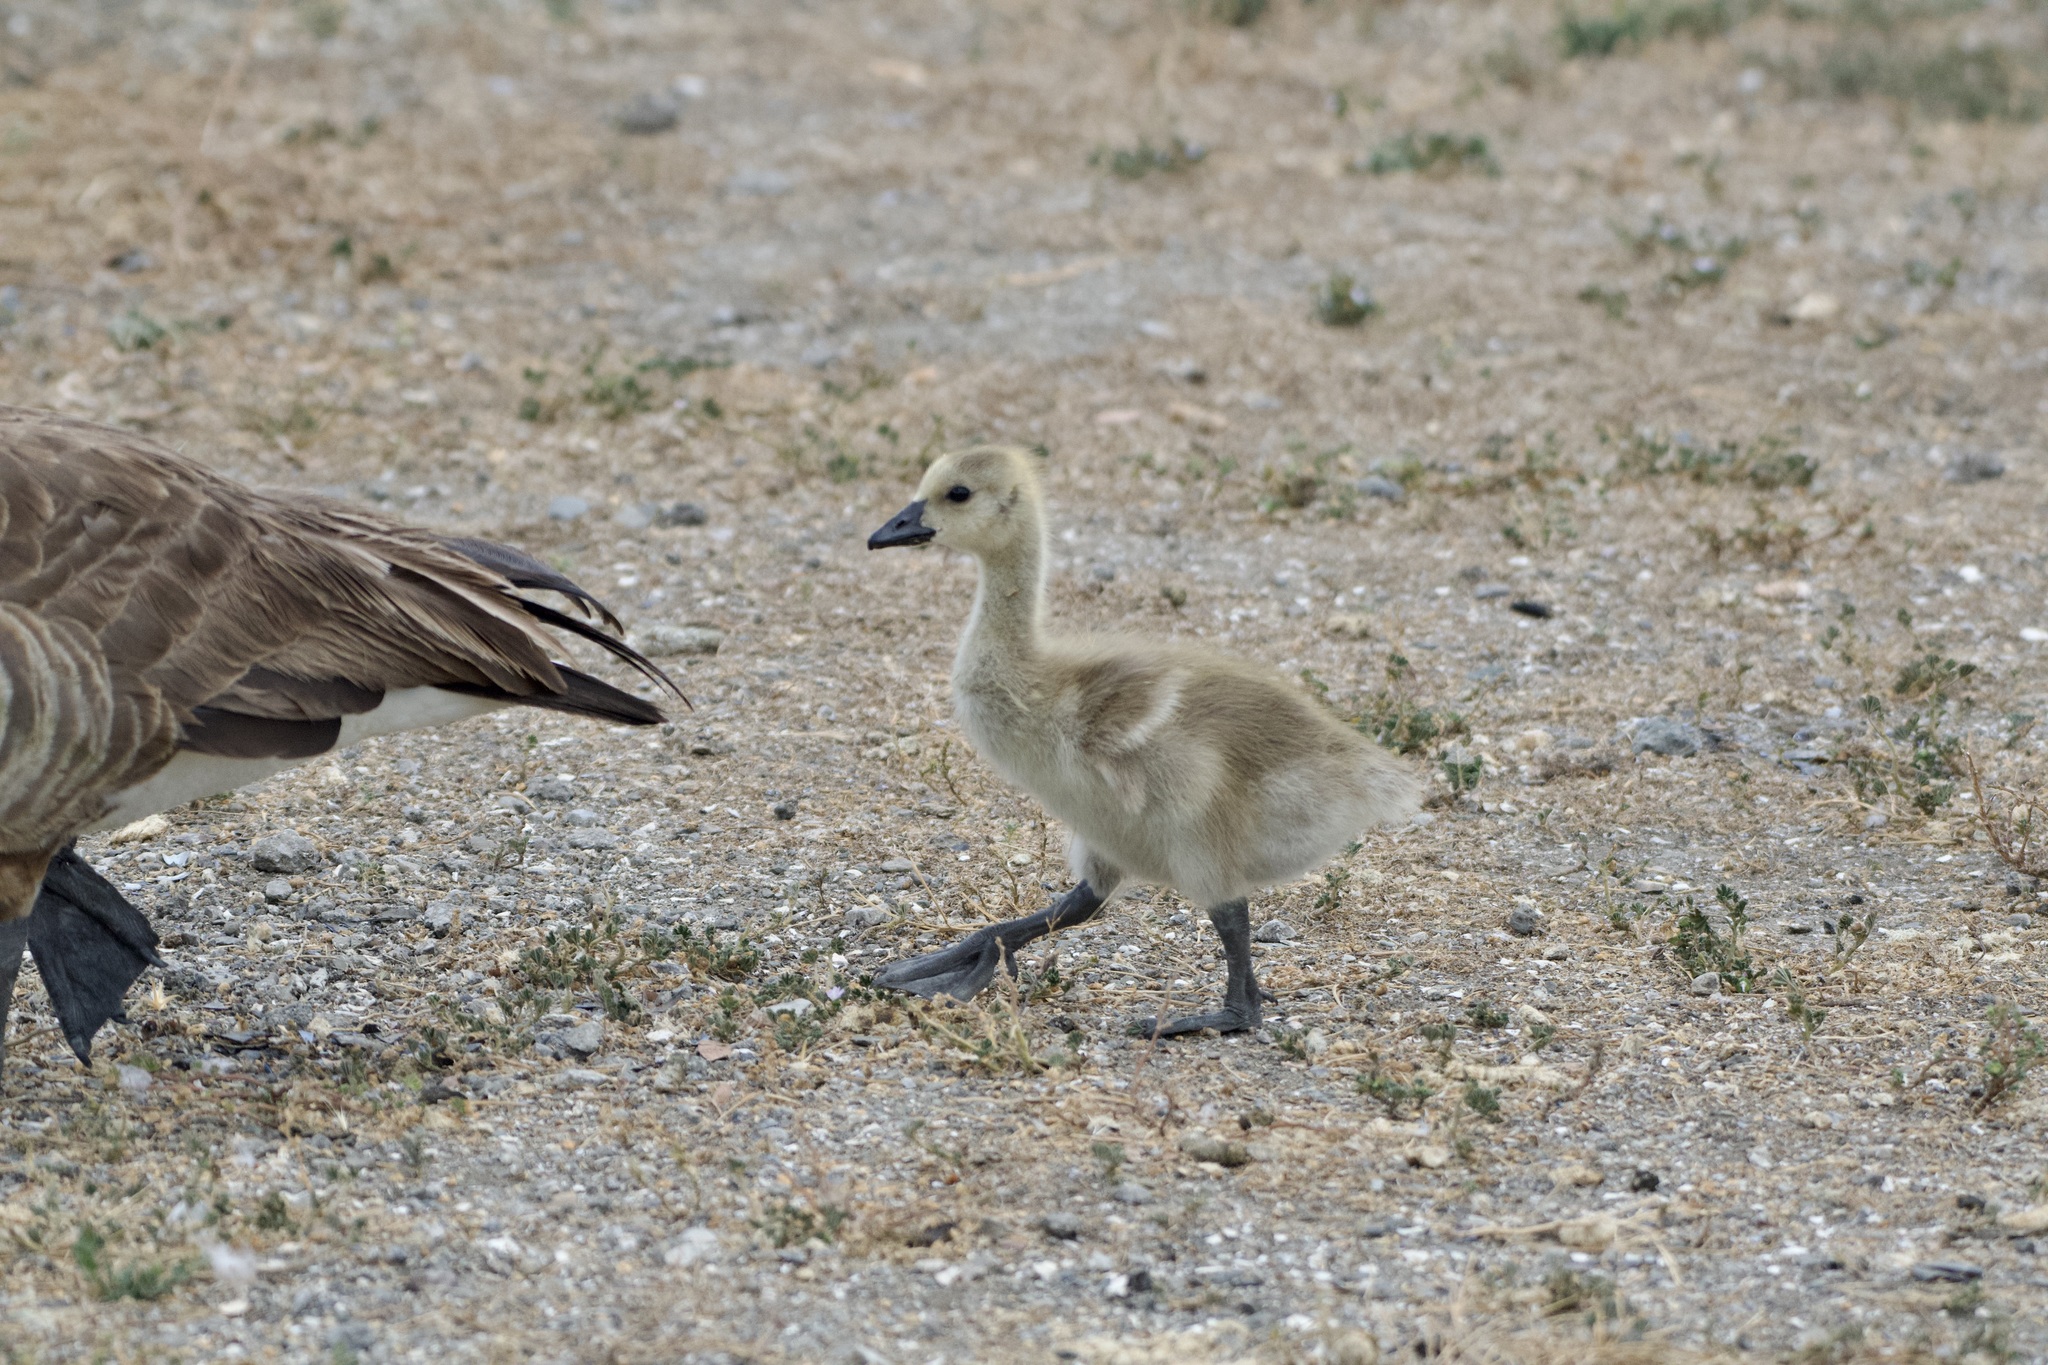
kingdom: Animalia
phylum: Chordata
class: Aves
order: Anseriformes
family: Anatidae
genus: Branta
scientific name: Branta canadensis
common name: Canada goose
